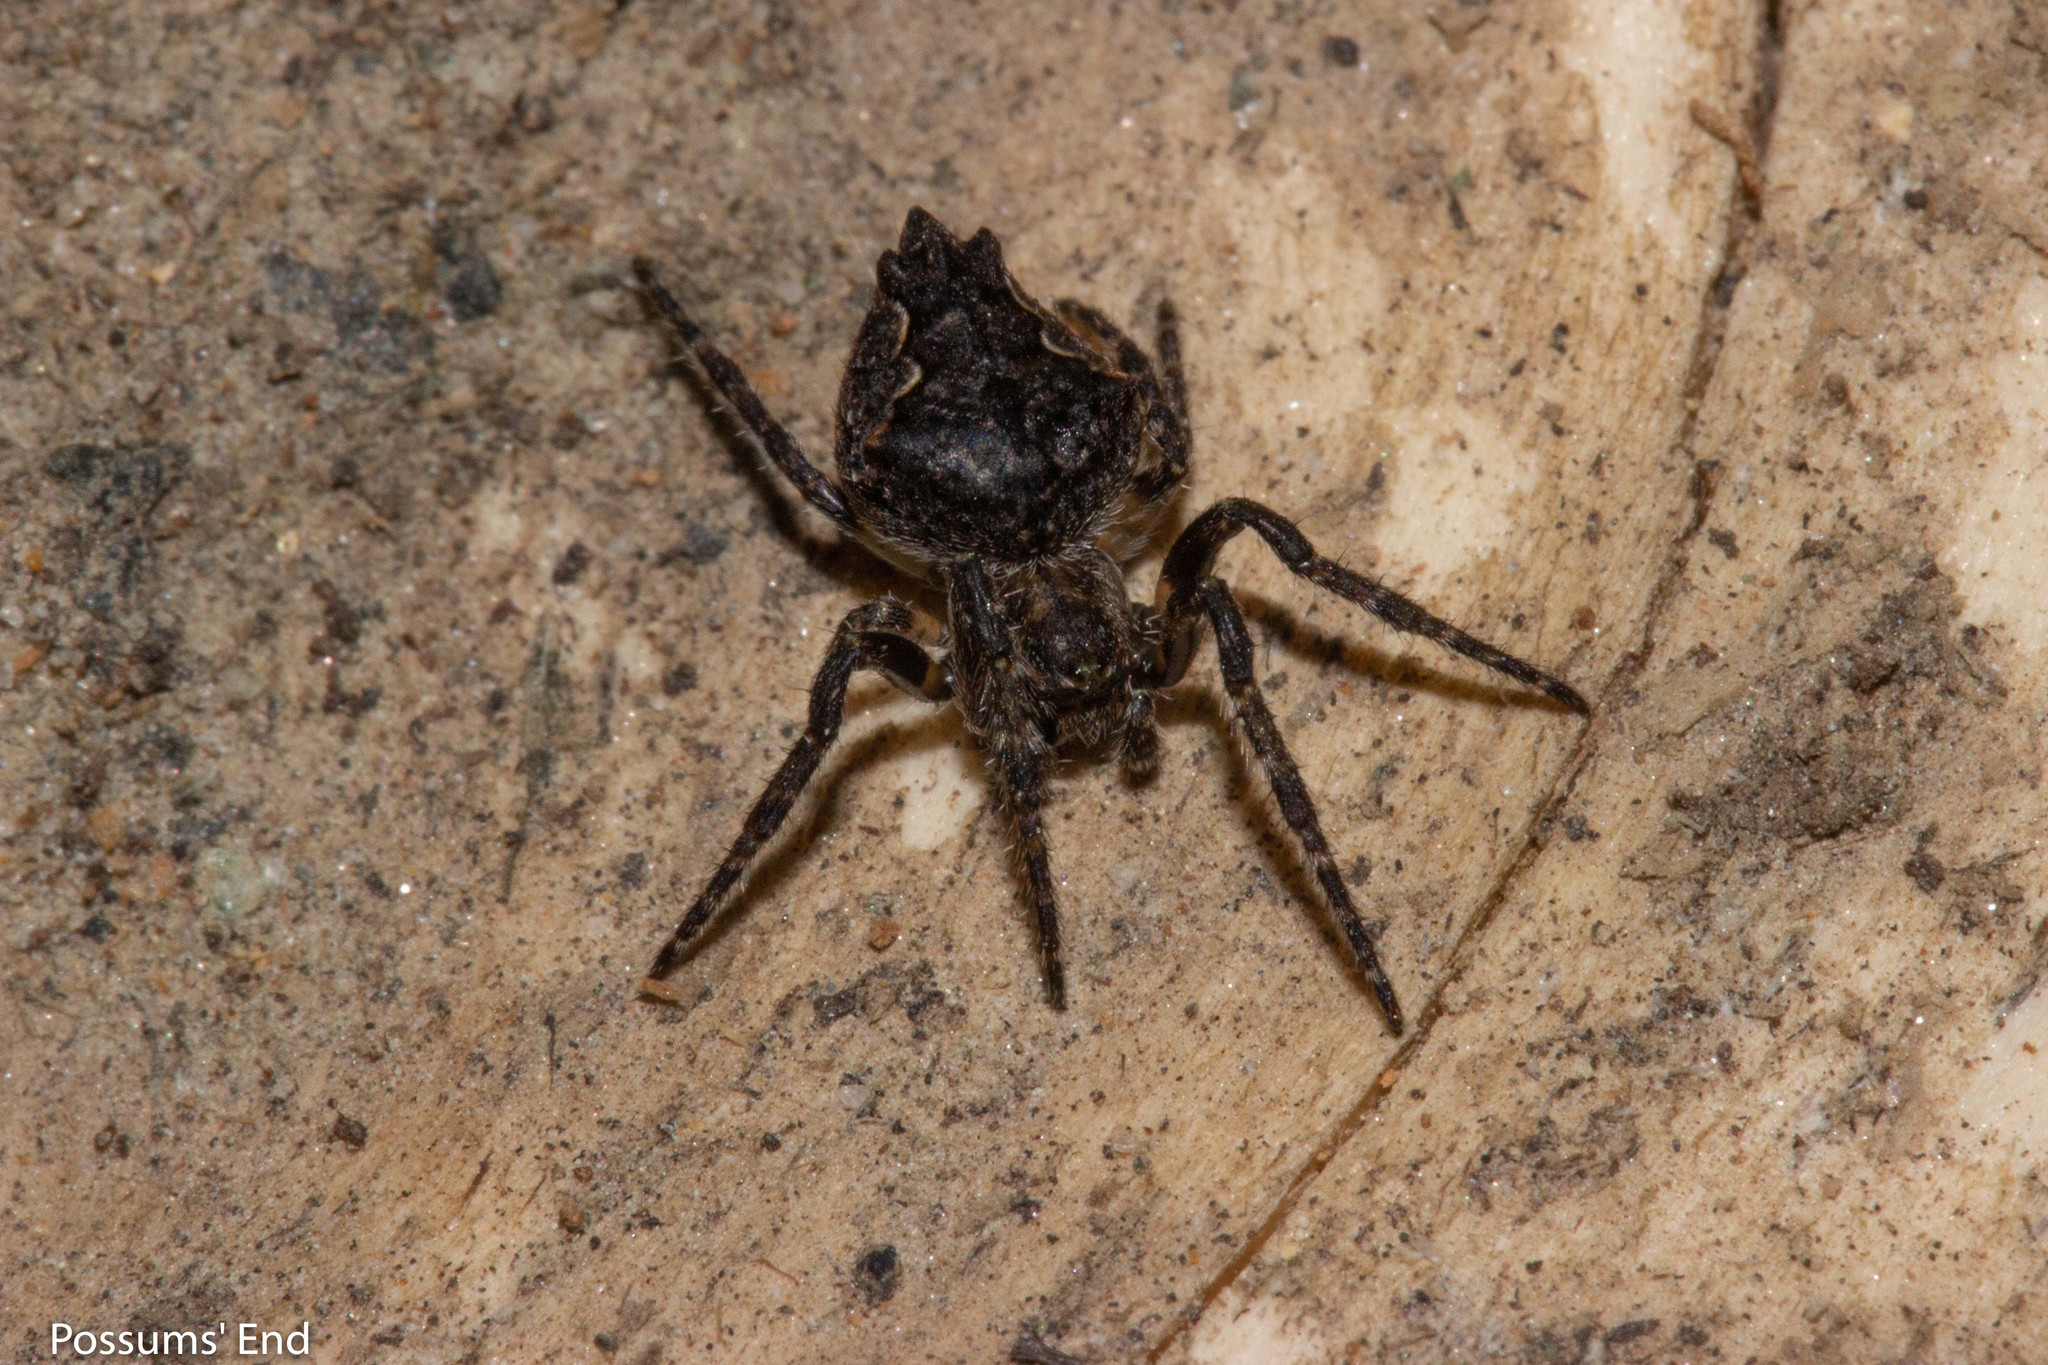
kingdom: Animalia
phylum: Arthropoda
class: Arachnida
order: Araneae
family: Araneidae
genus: Eriophora
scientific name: Eriophora pustulosa
